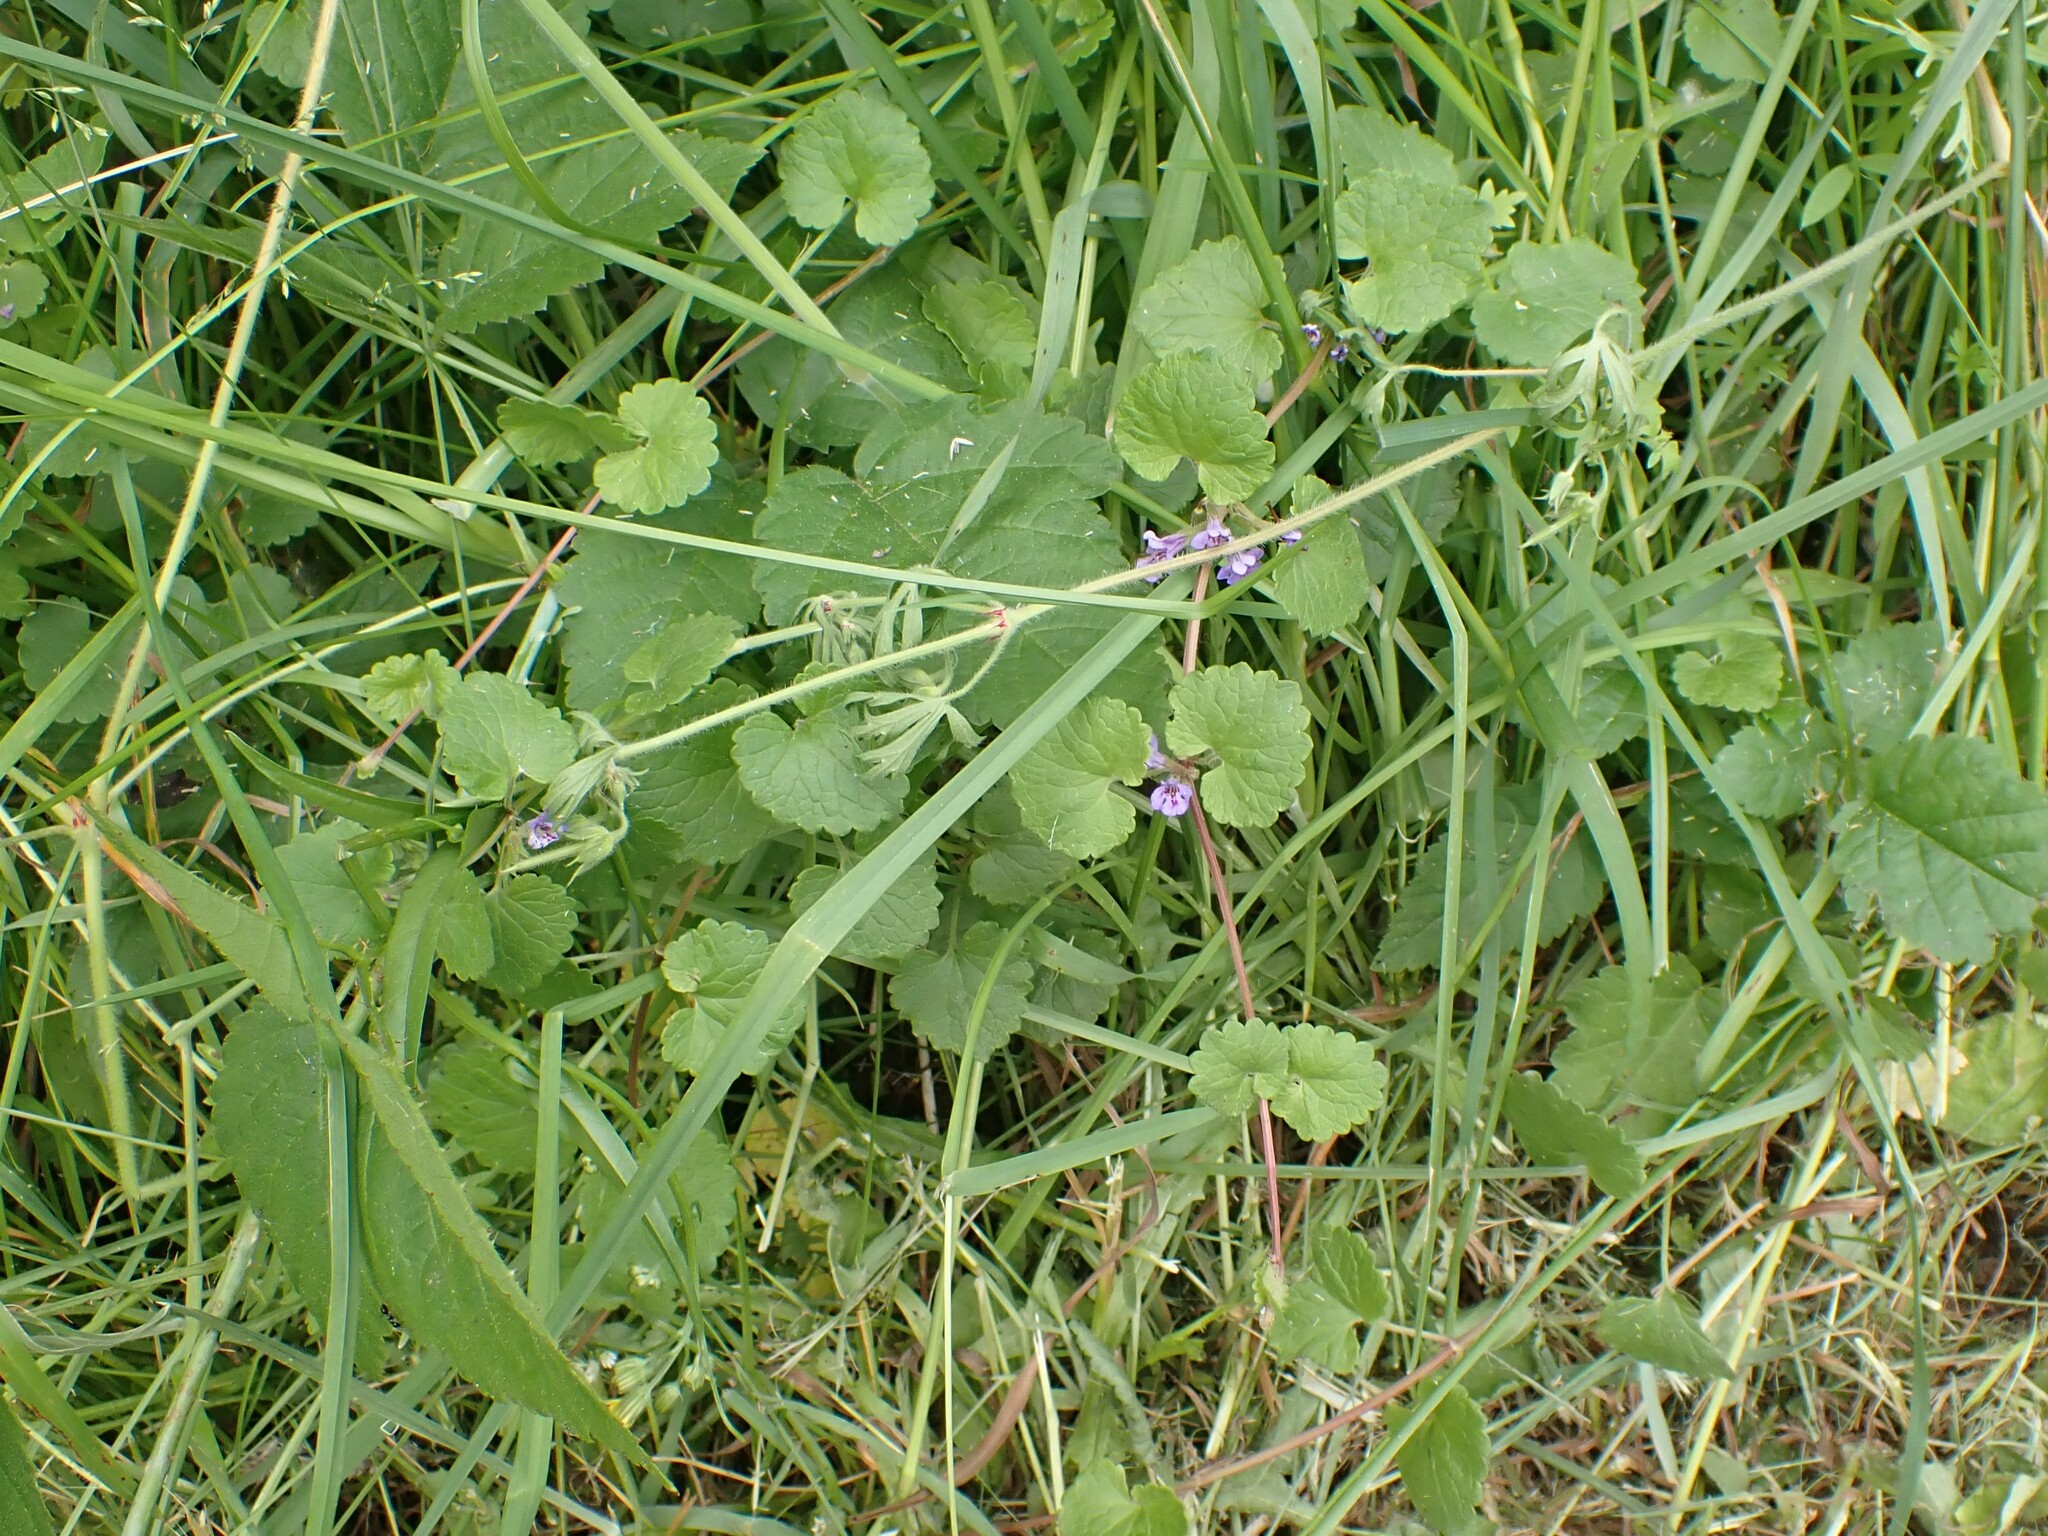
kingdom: Plantae
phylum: Tracheophyta
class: Magnoliopsida
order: Lamiales
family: Lamiaceae
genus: Glechoma
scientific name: Glechoma hederacea
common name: Ground ivy
